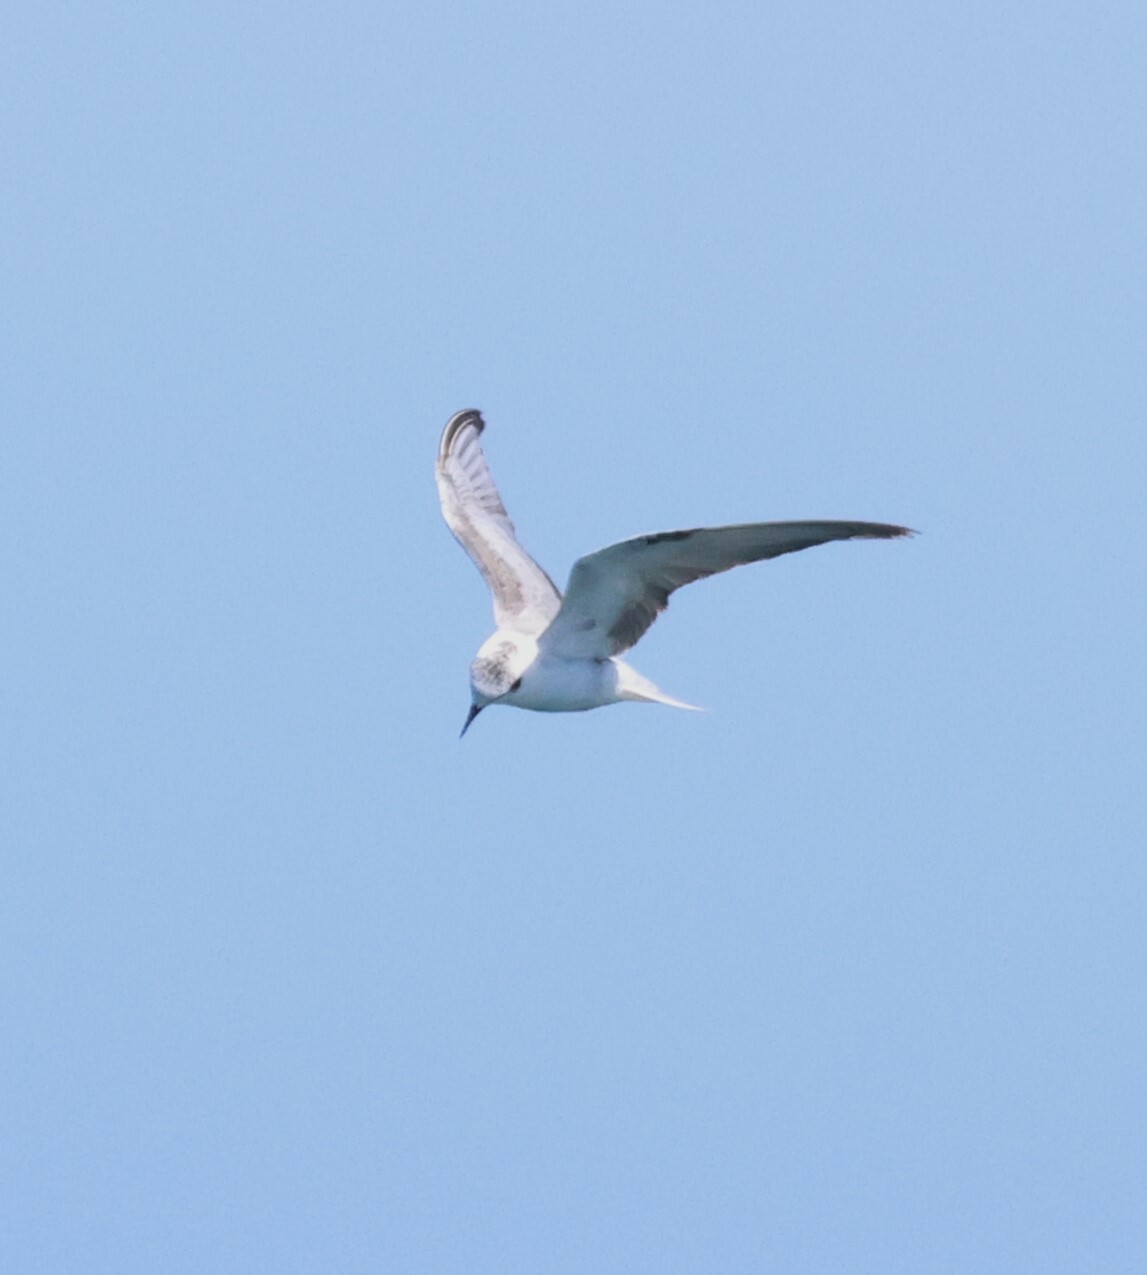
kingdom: Animalia
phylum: Chordata
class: Aves
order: Charadriiformes
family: Laridae
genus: Chlidonias
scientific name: Chlidonias leucopterus
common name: White-winged tern
